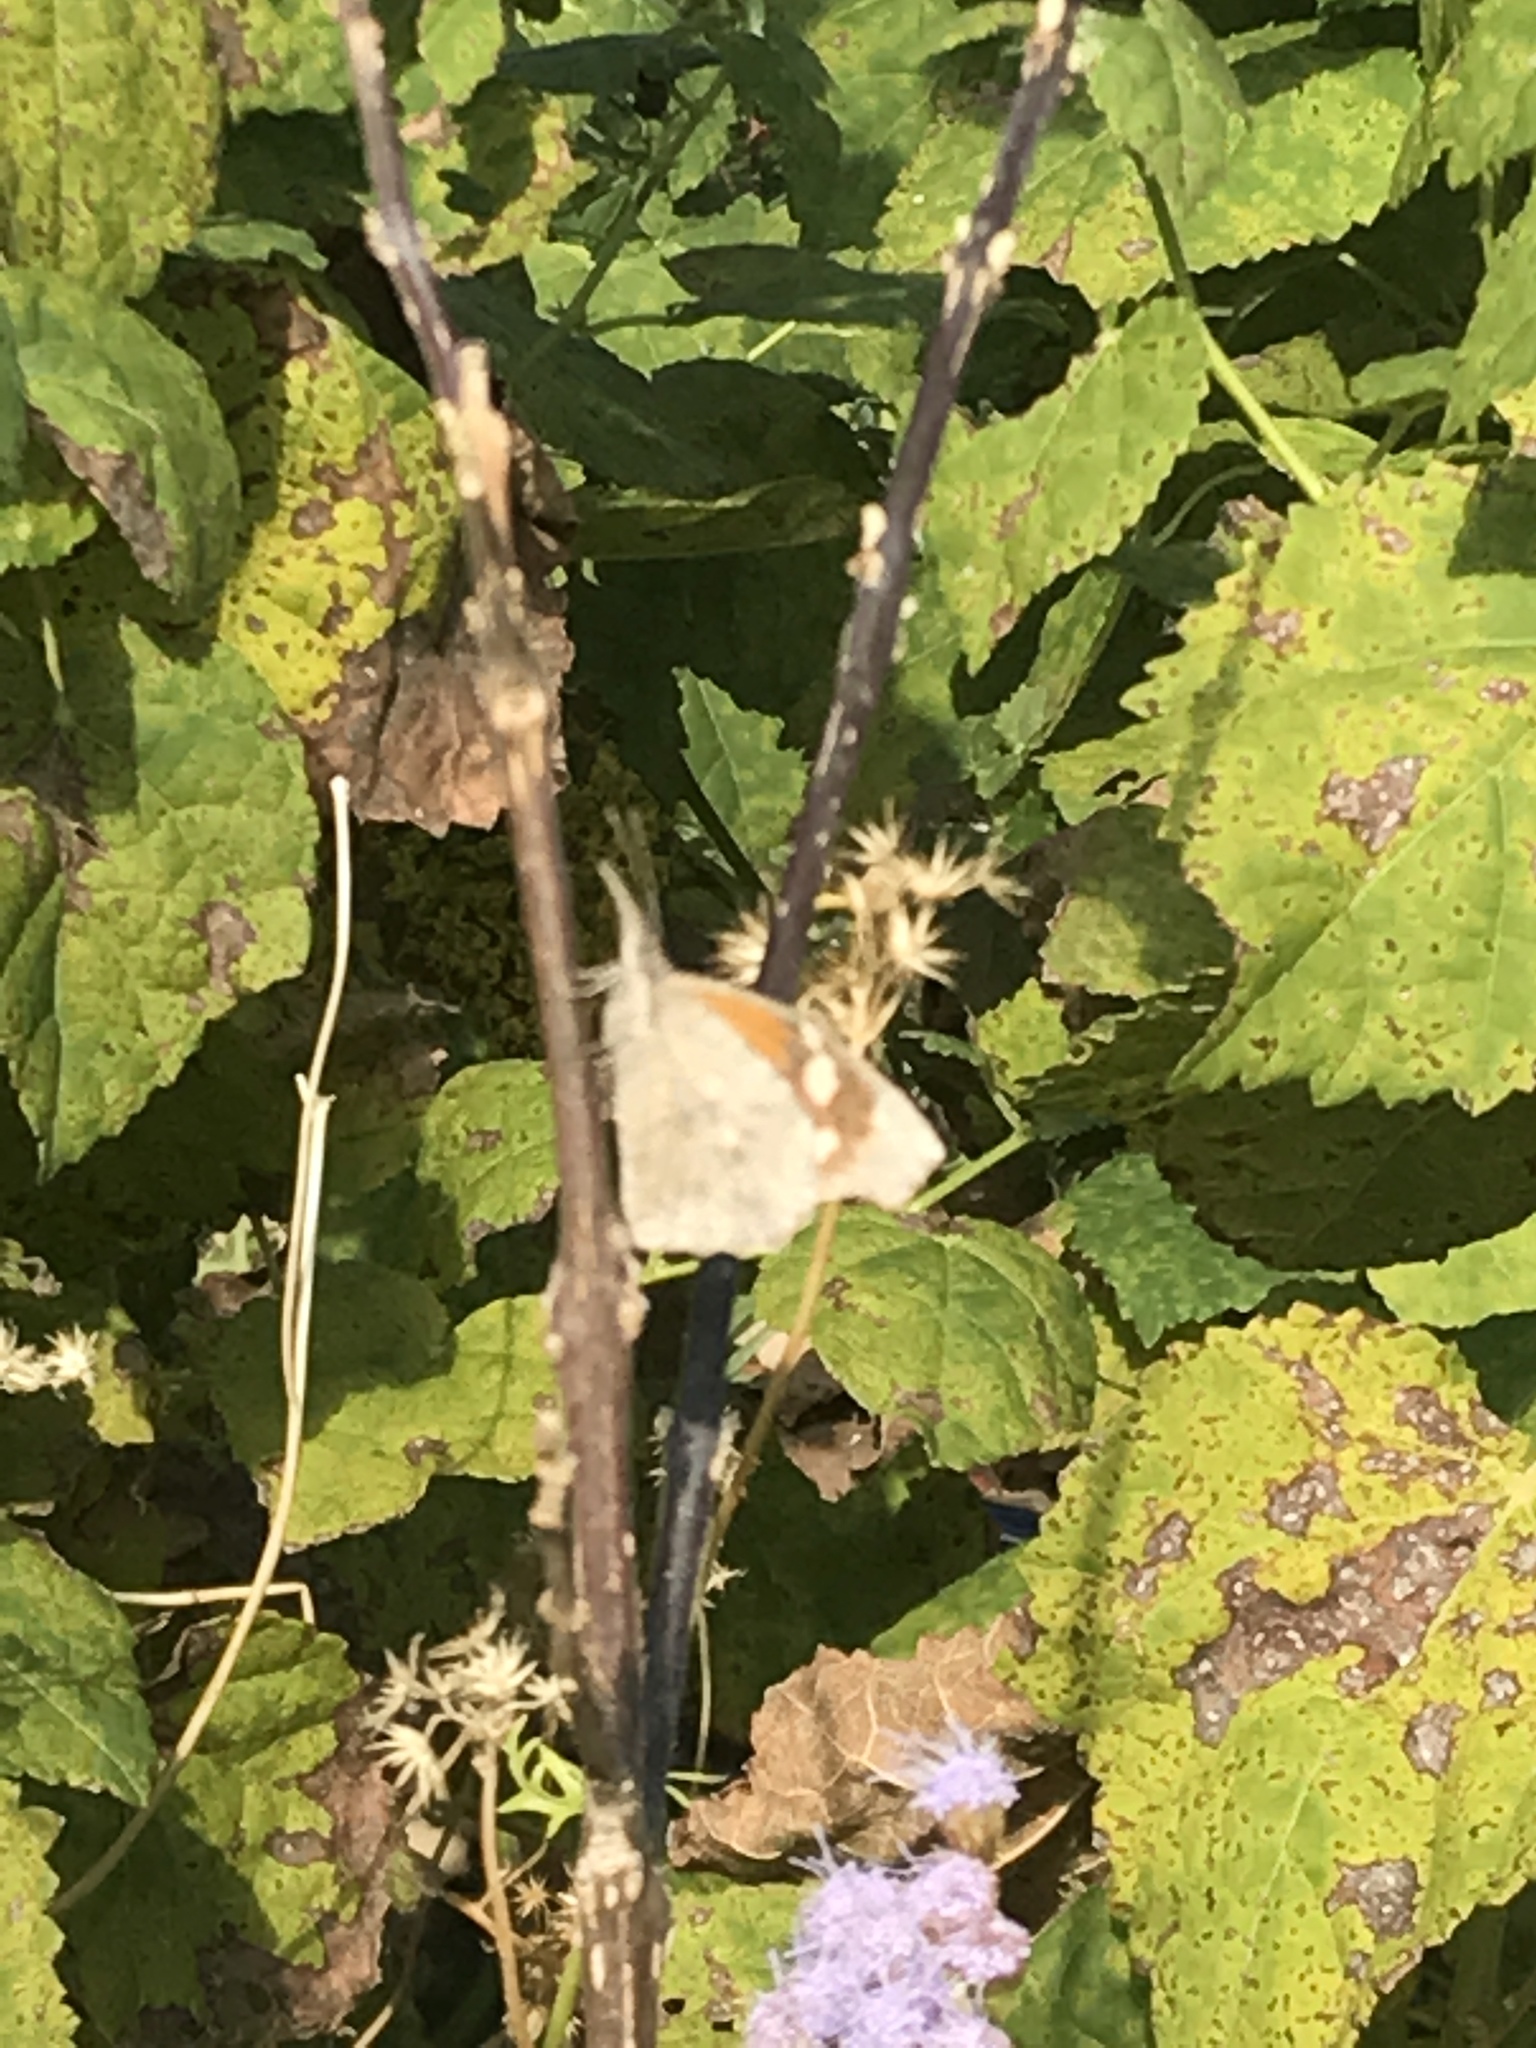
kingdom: Animalia
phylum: Arthropoda
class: Insecta
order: Lepidoptera
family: Nymphalidae
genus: Libytheana
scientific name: Libytheana carinenta
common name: American snout
